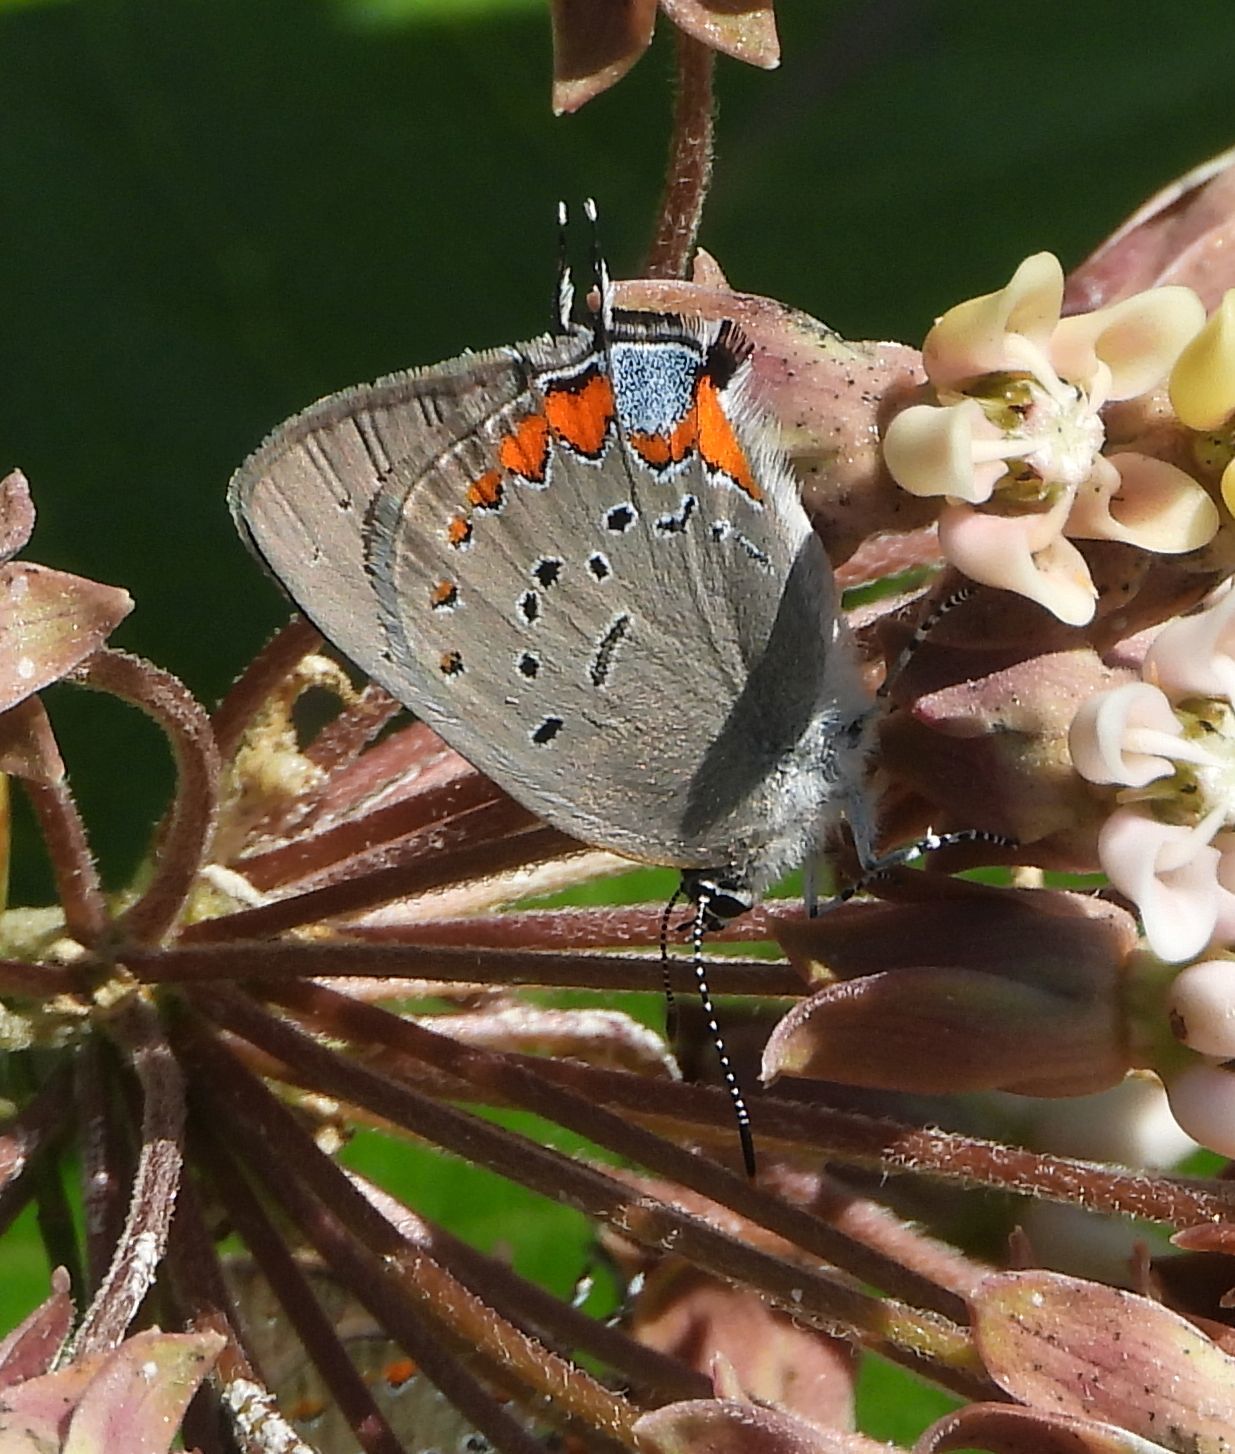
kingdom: Animalia
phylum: Arthropoda
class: Insecta
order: Lepidoptera
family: Lycaenidae
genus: Strymon
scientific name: Strymon acadica
